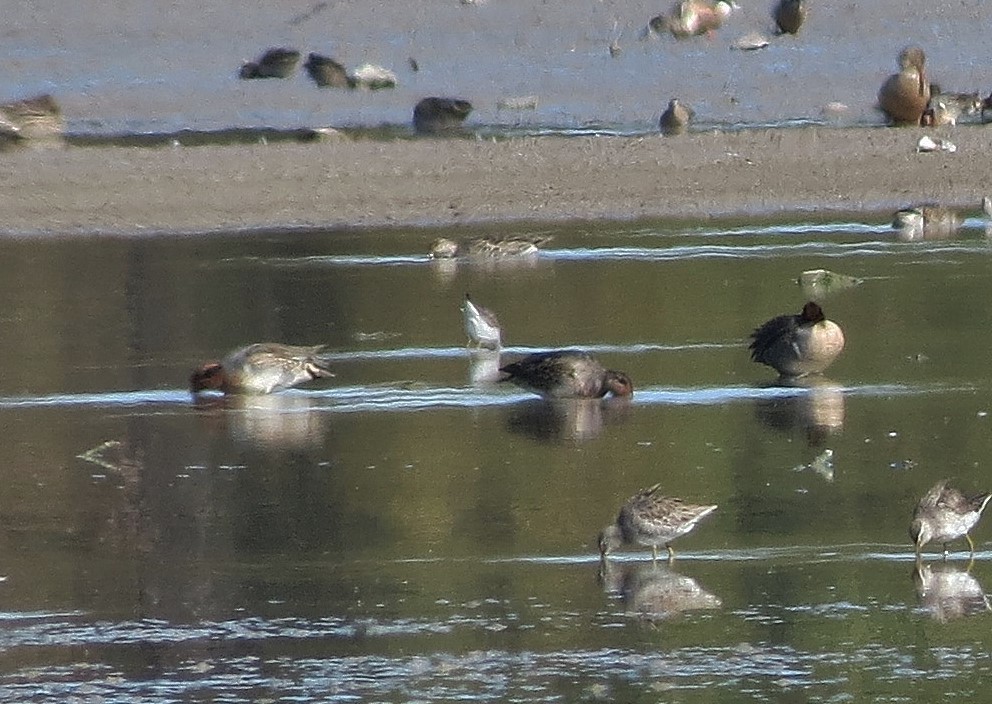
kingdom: Animalia
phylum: Chordata
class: Aves
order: Anseriformes
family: Anatidae
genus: Anas
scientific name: Anas crecca
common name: Eurasian teal
